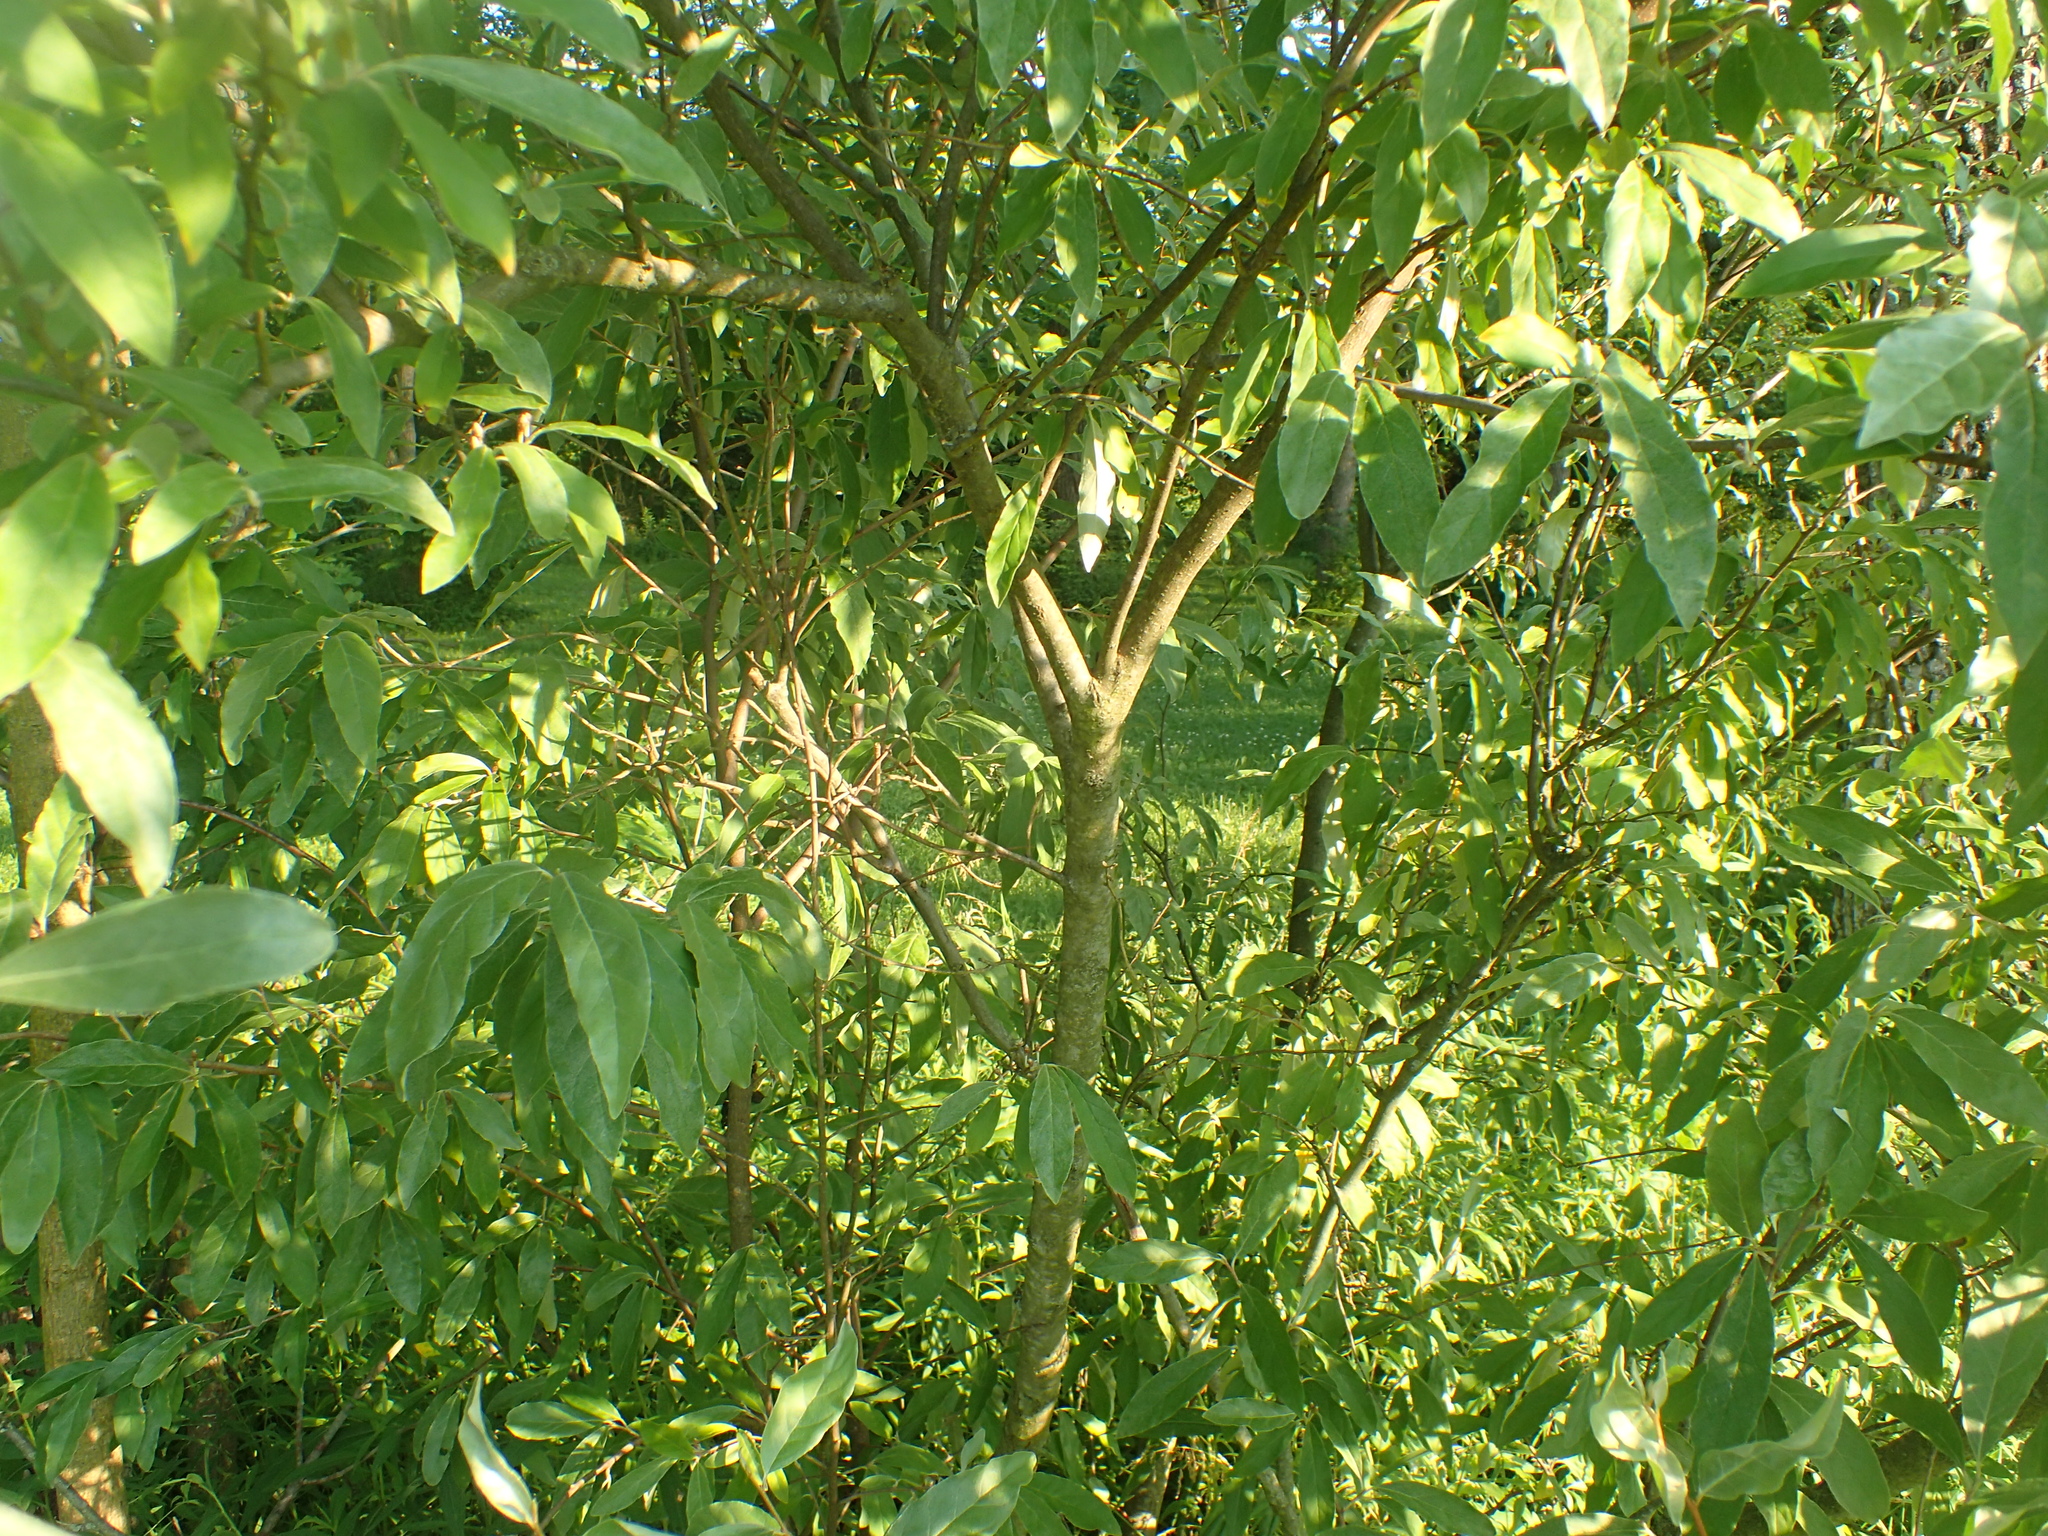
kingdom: Plantae
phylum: Tracheophyta
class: Magnoliopsida
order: Rosales
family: Elaeagnaceae
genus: Elaeagnus
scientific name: Elaeagnus umbellata
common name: Autumn olive
